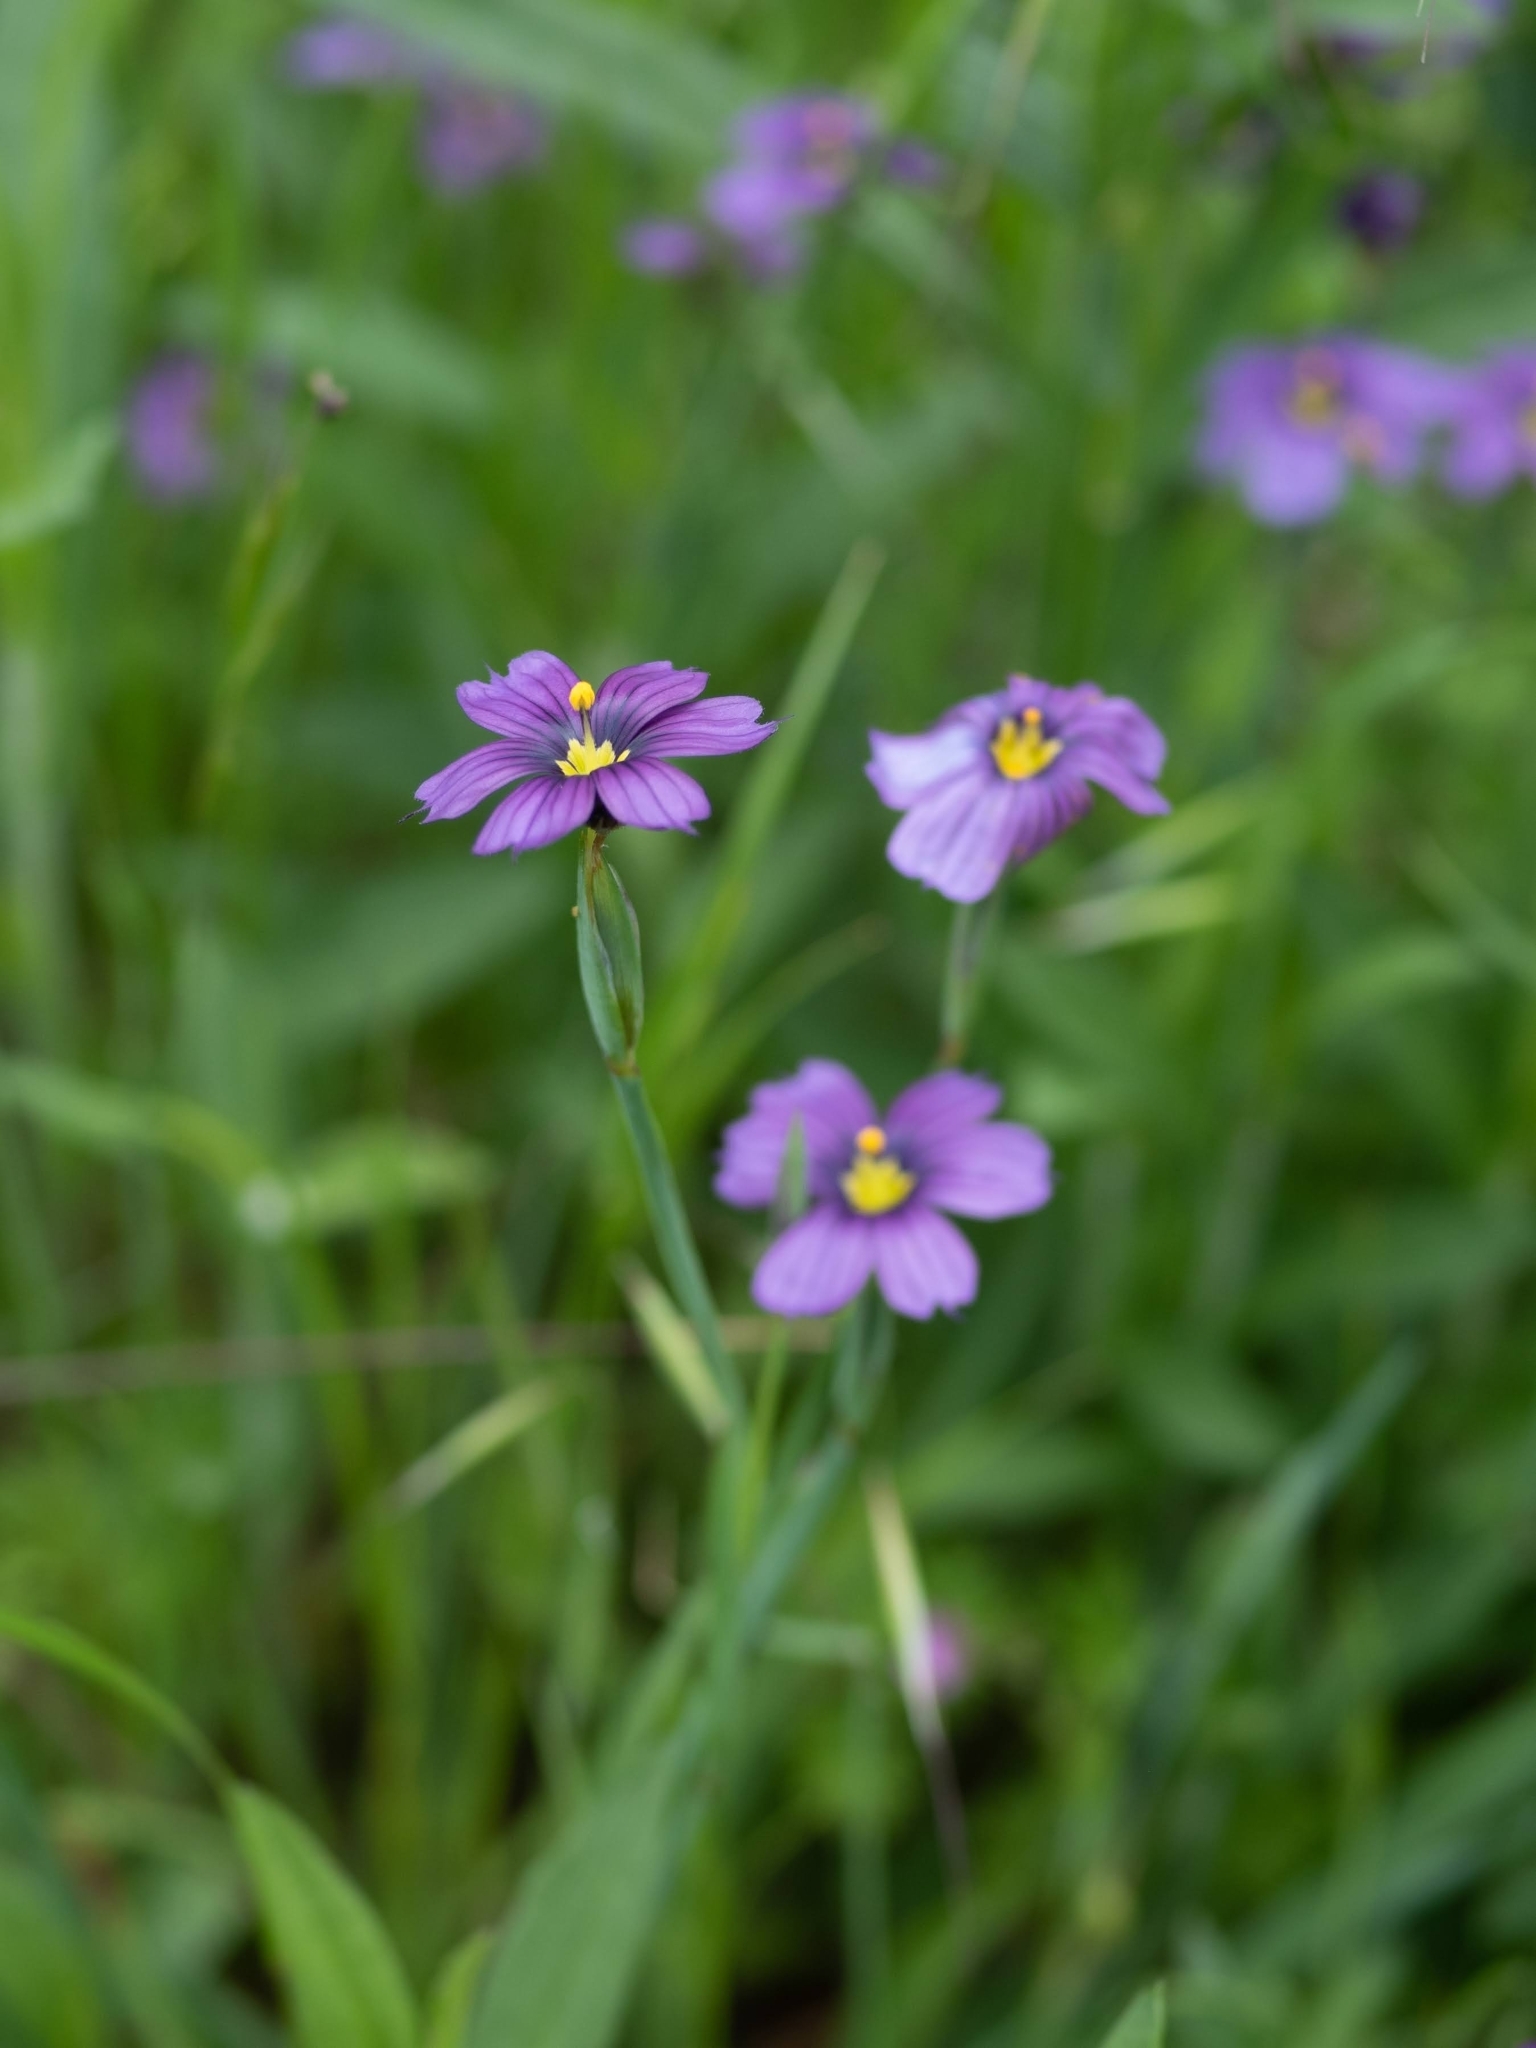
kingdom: Plantae
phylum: Tracheophyta
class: Liliopsida
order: Asparagales
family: Iridaceae
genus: Sisyrinchium
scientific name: Sisyrinchium bellum
